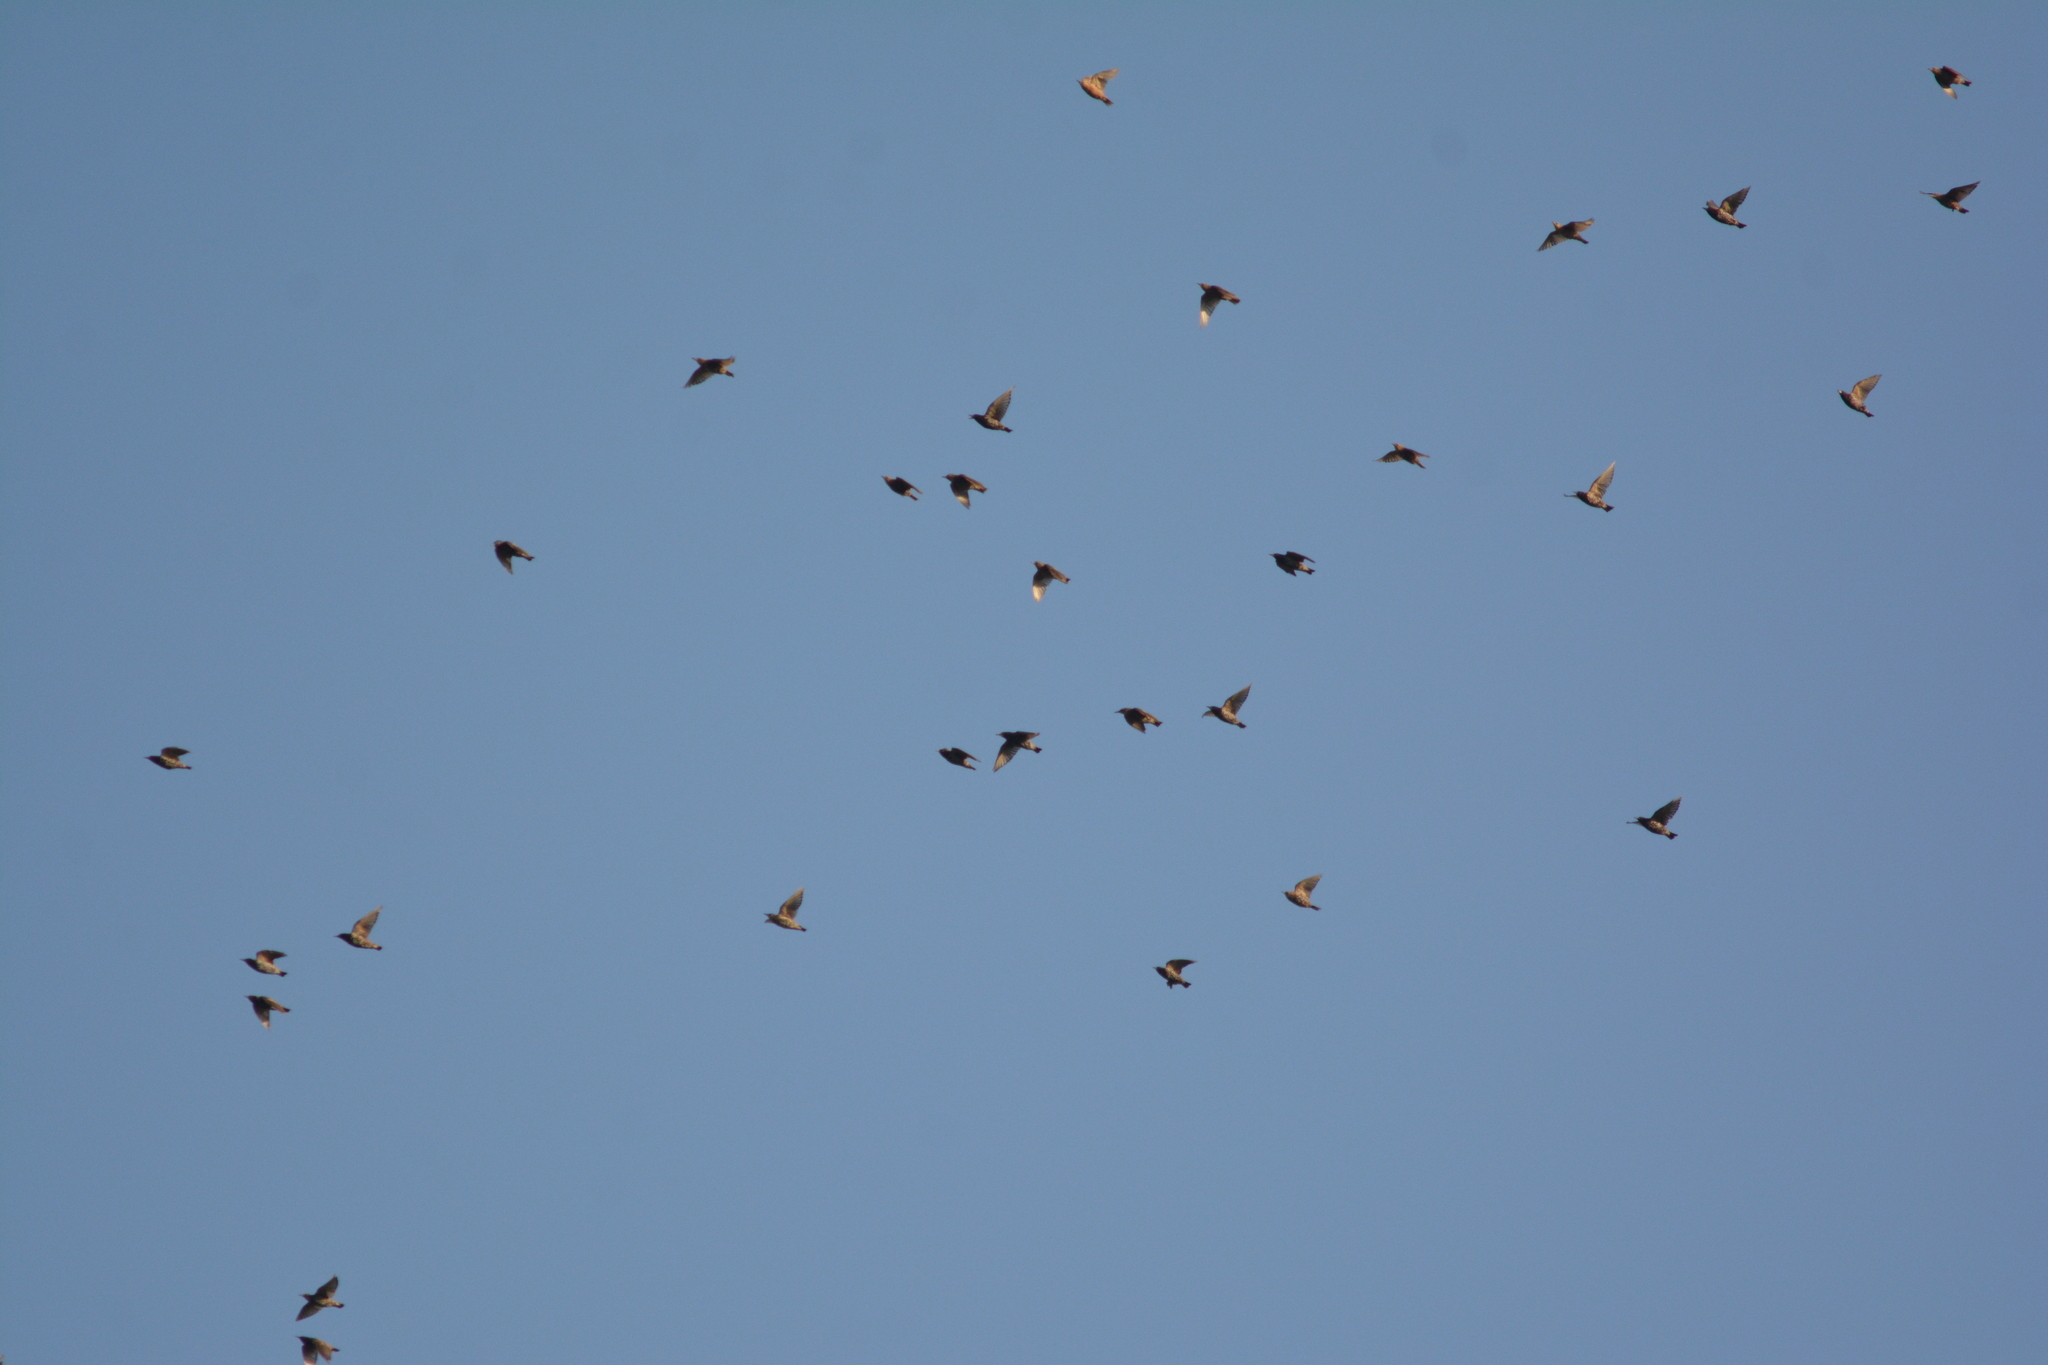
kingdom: Animalia
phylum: Chordata
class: Aves
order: Passeriformes
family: Sturnidae
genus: Sturnus
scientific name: Sturnus vulgaris
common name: Common starling
